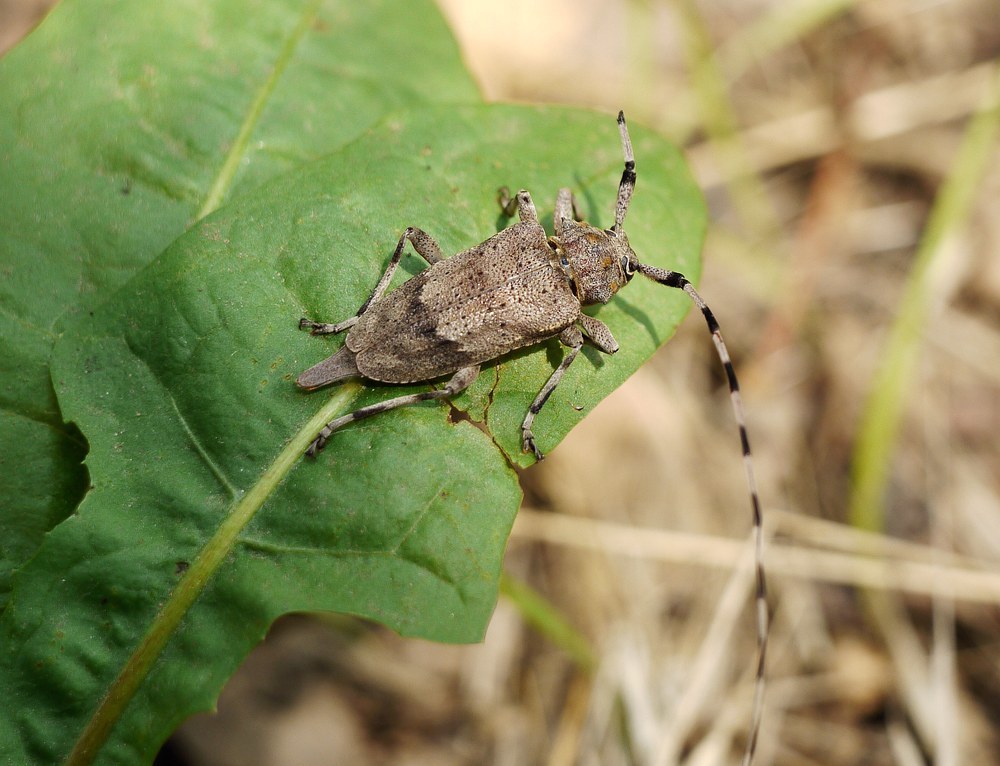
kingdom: Animalia
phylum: Arthropoda
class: Insecta
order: Coleoptera
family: Cerambycidae
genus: Acanthocinus
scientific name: Acanthocinus aedilis
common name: Timberman beetle
